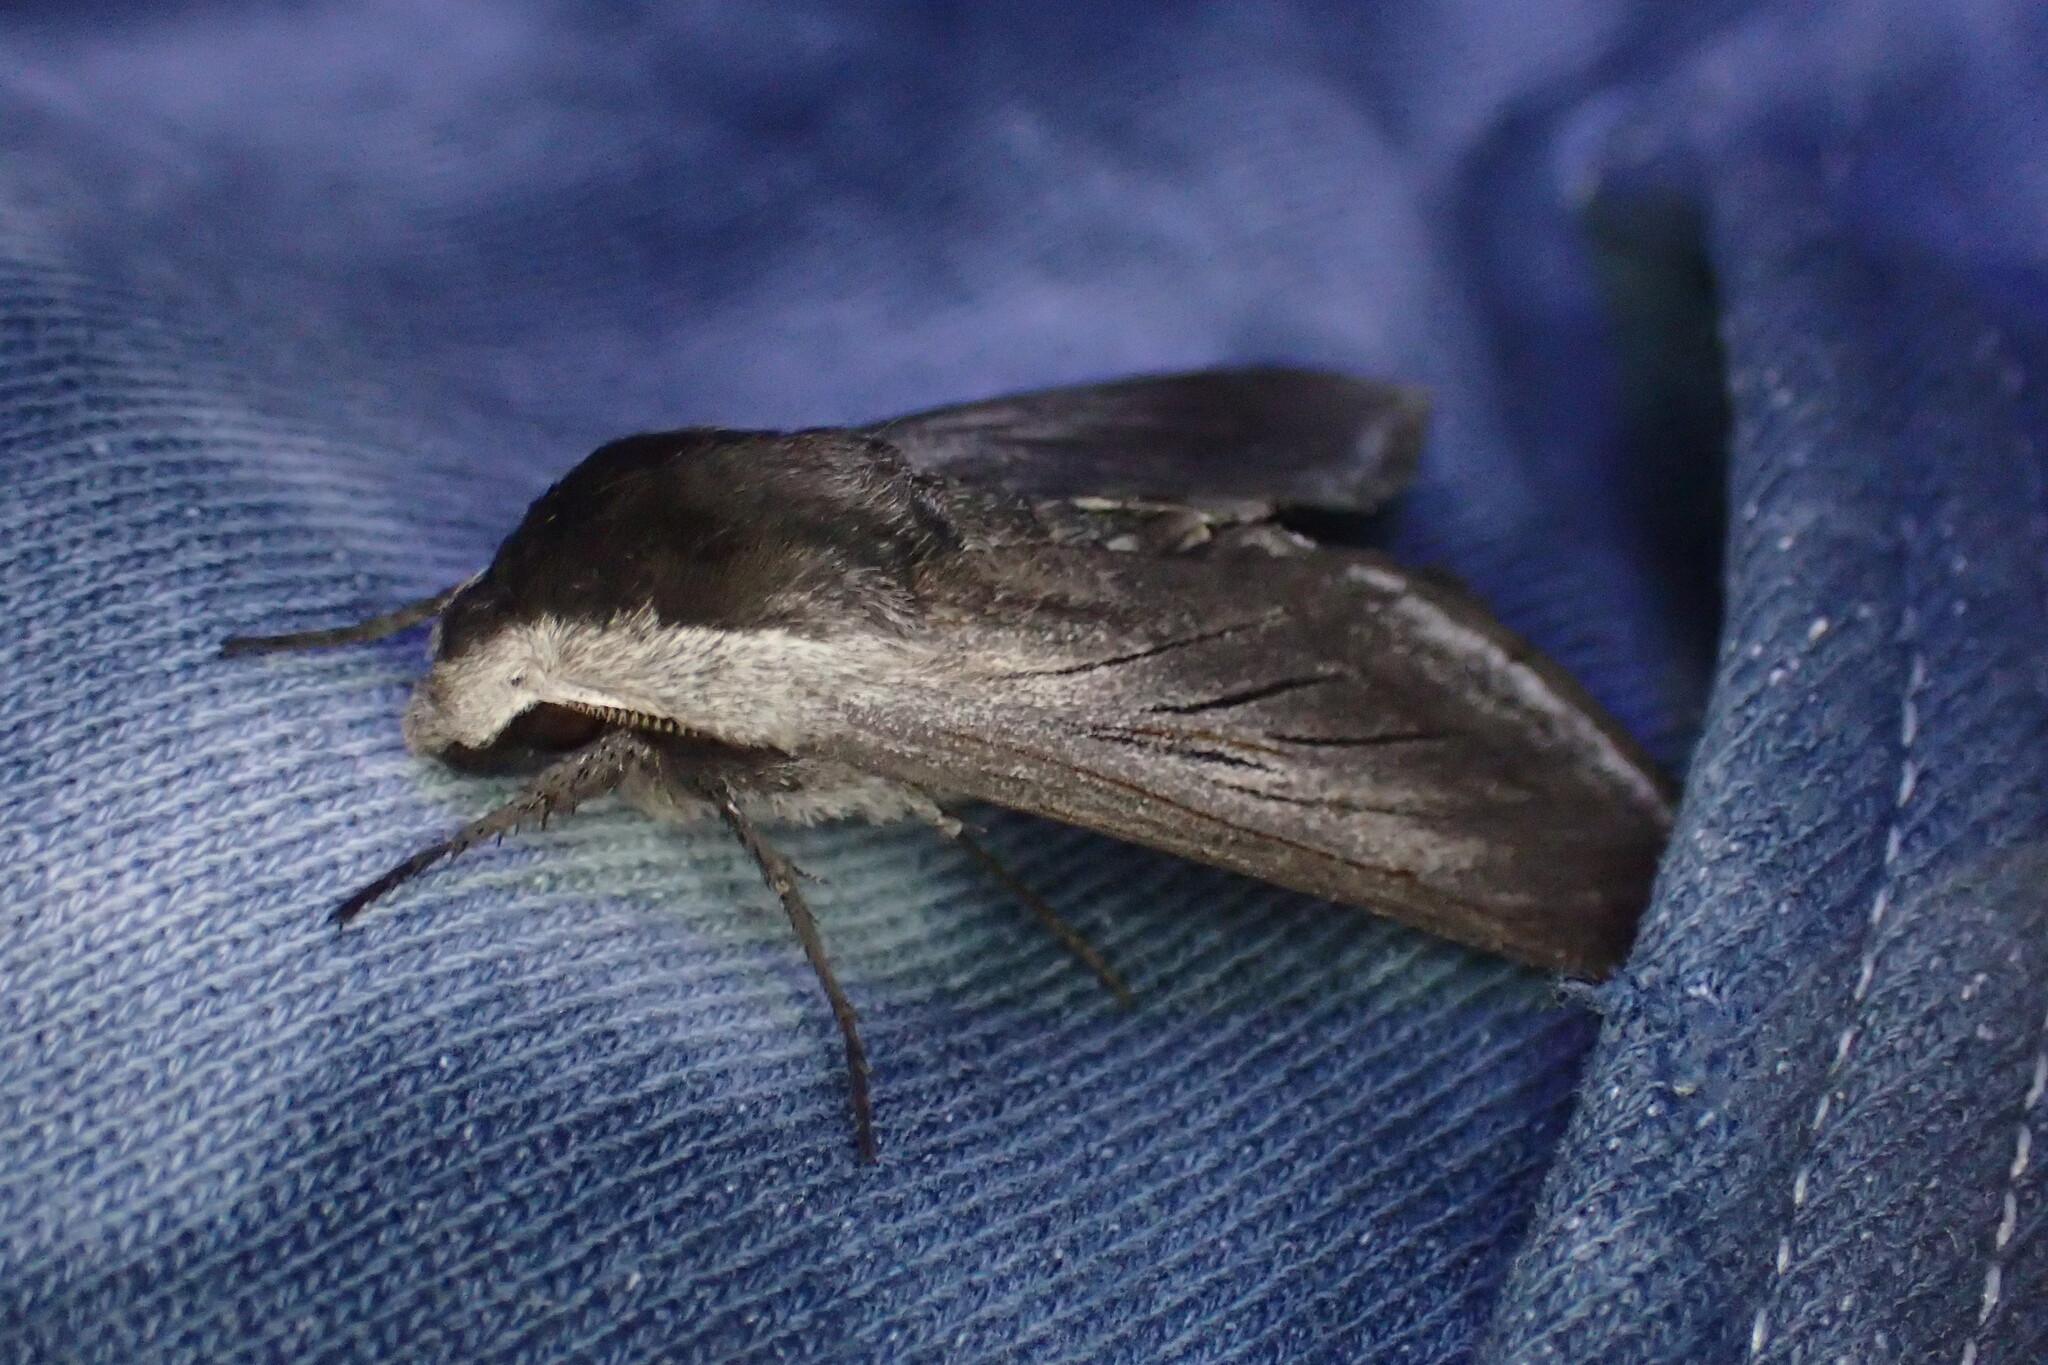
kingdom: Animalia
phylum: Arthropoda
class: Insecta
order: Lepidoptera
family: Sphingidae
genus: Sphinx
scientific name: Sphinx perelegans
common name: Elegant sphinx
